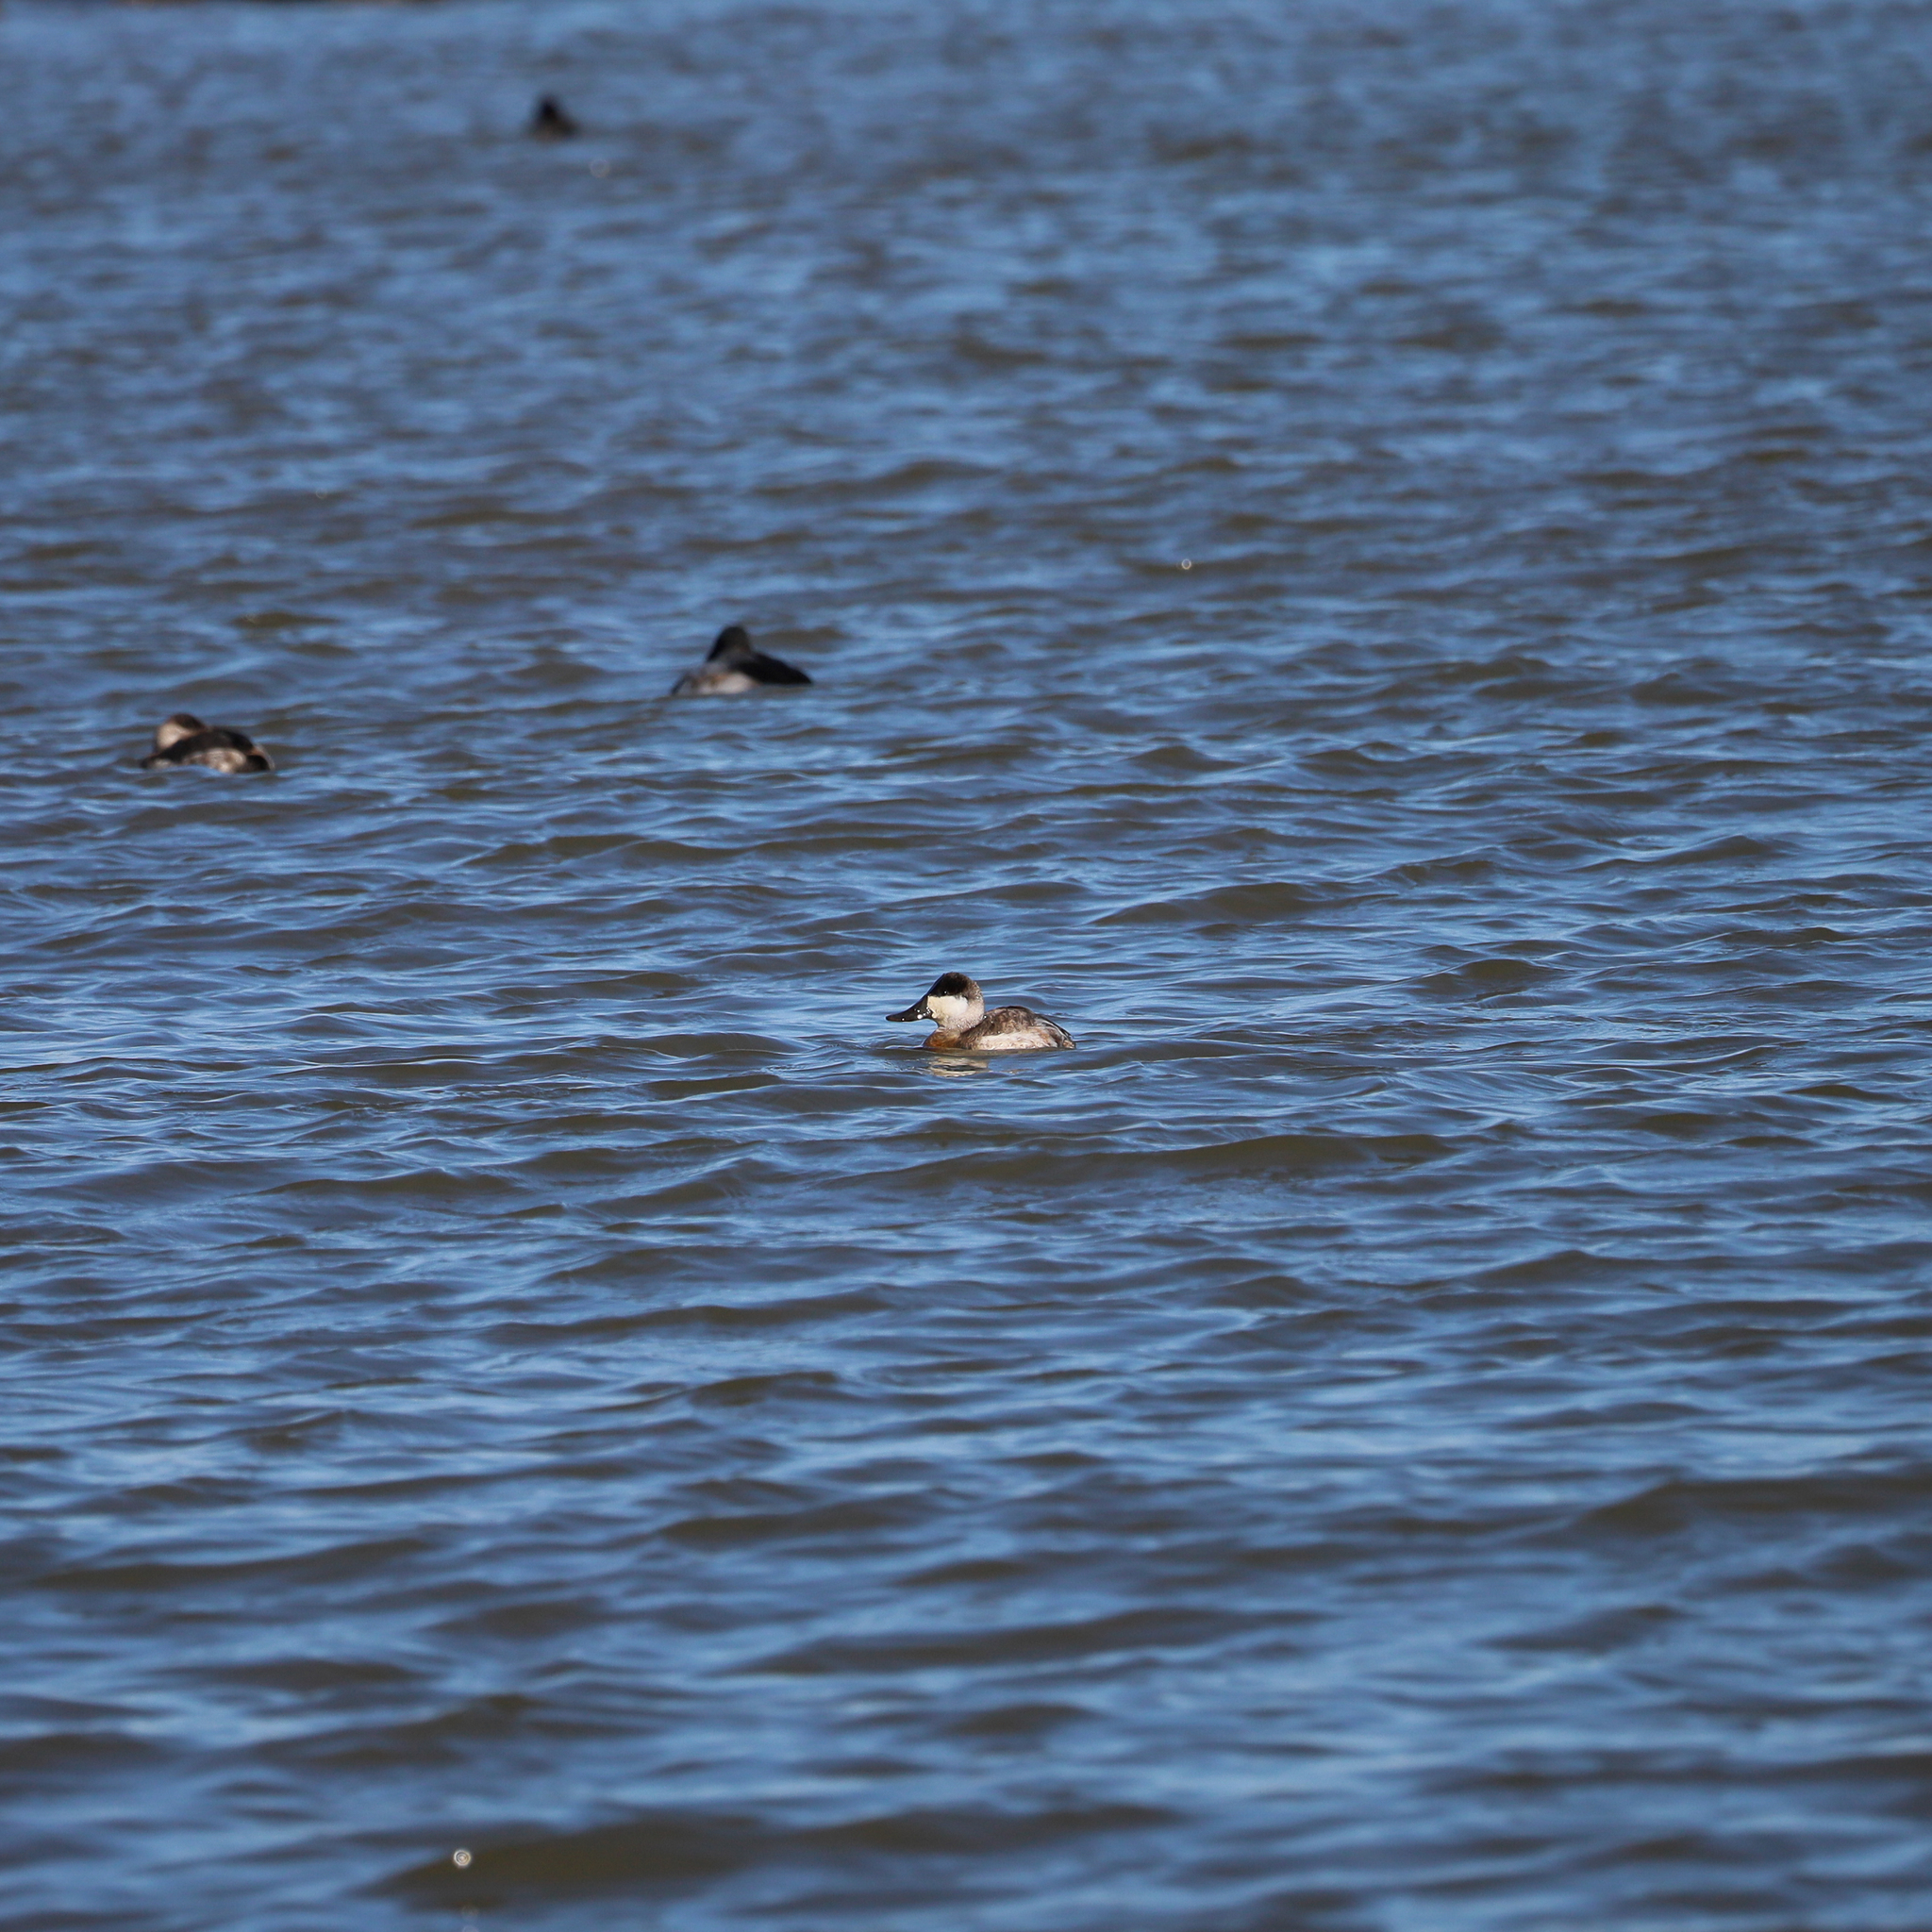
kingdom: Animalia
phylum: Chordata
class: Aves
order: Anseriformes
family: Anatidae
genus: Oxyura
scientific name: Oxyura jamaicensis
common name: Ruddy duck
